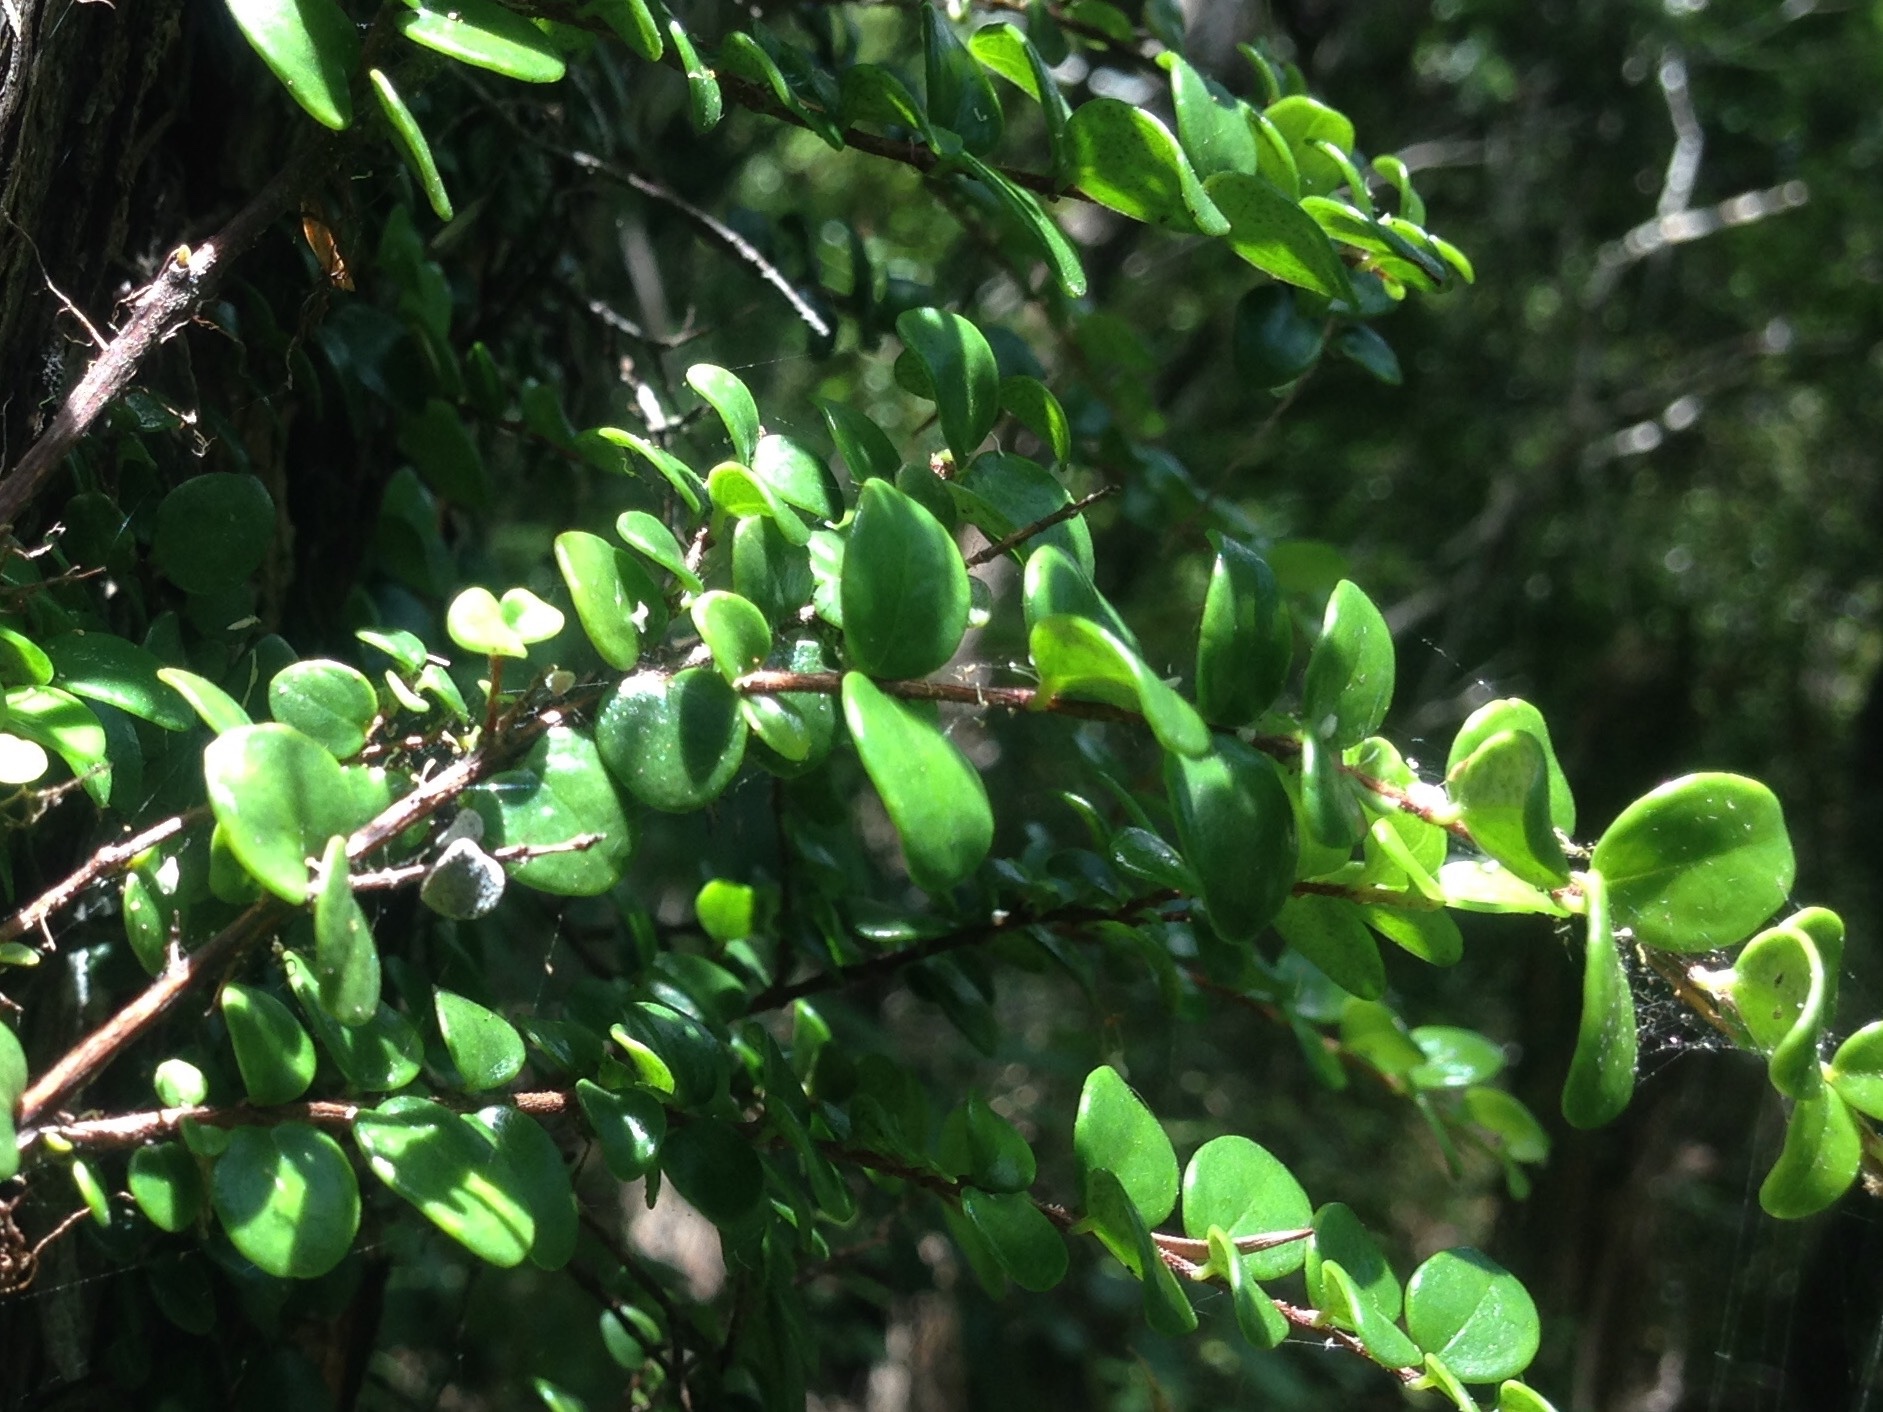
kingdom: Plantae
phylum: Tracheophyta
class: Magnoliopsida
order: Myrtales
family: Myrtaceae
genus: Metrosideros
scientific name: Metrosideros perforata
